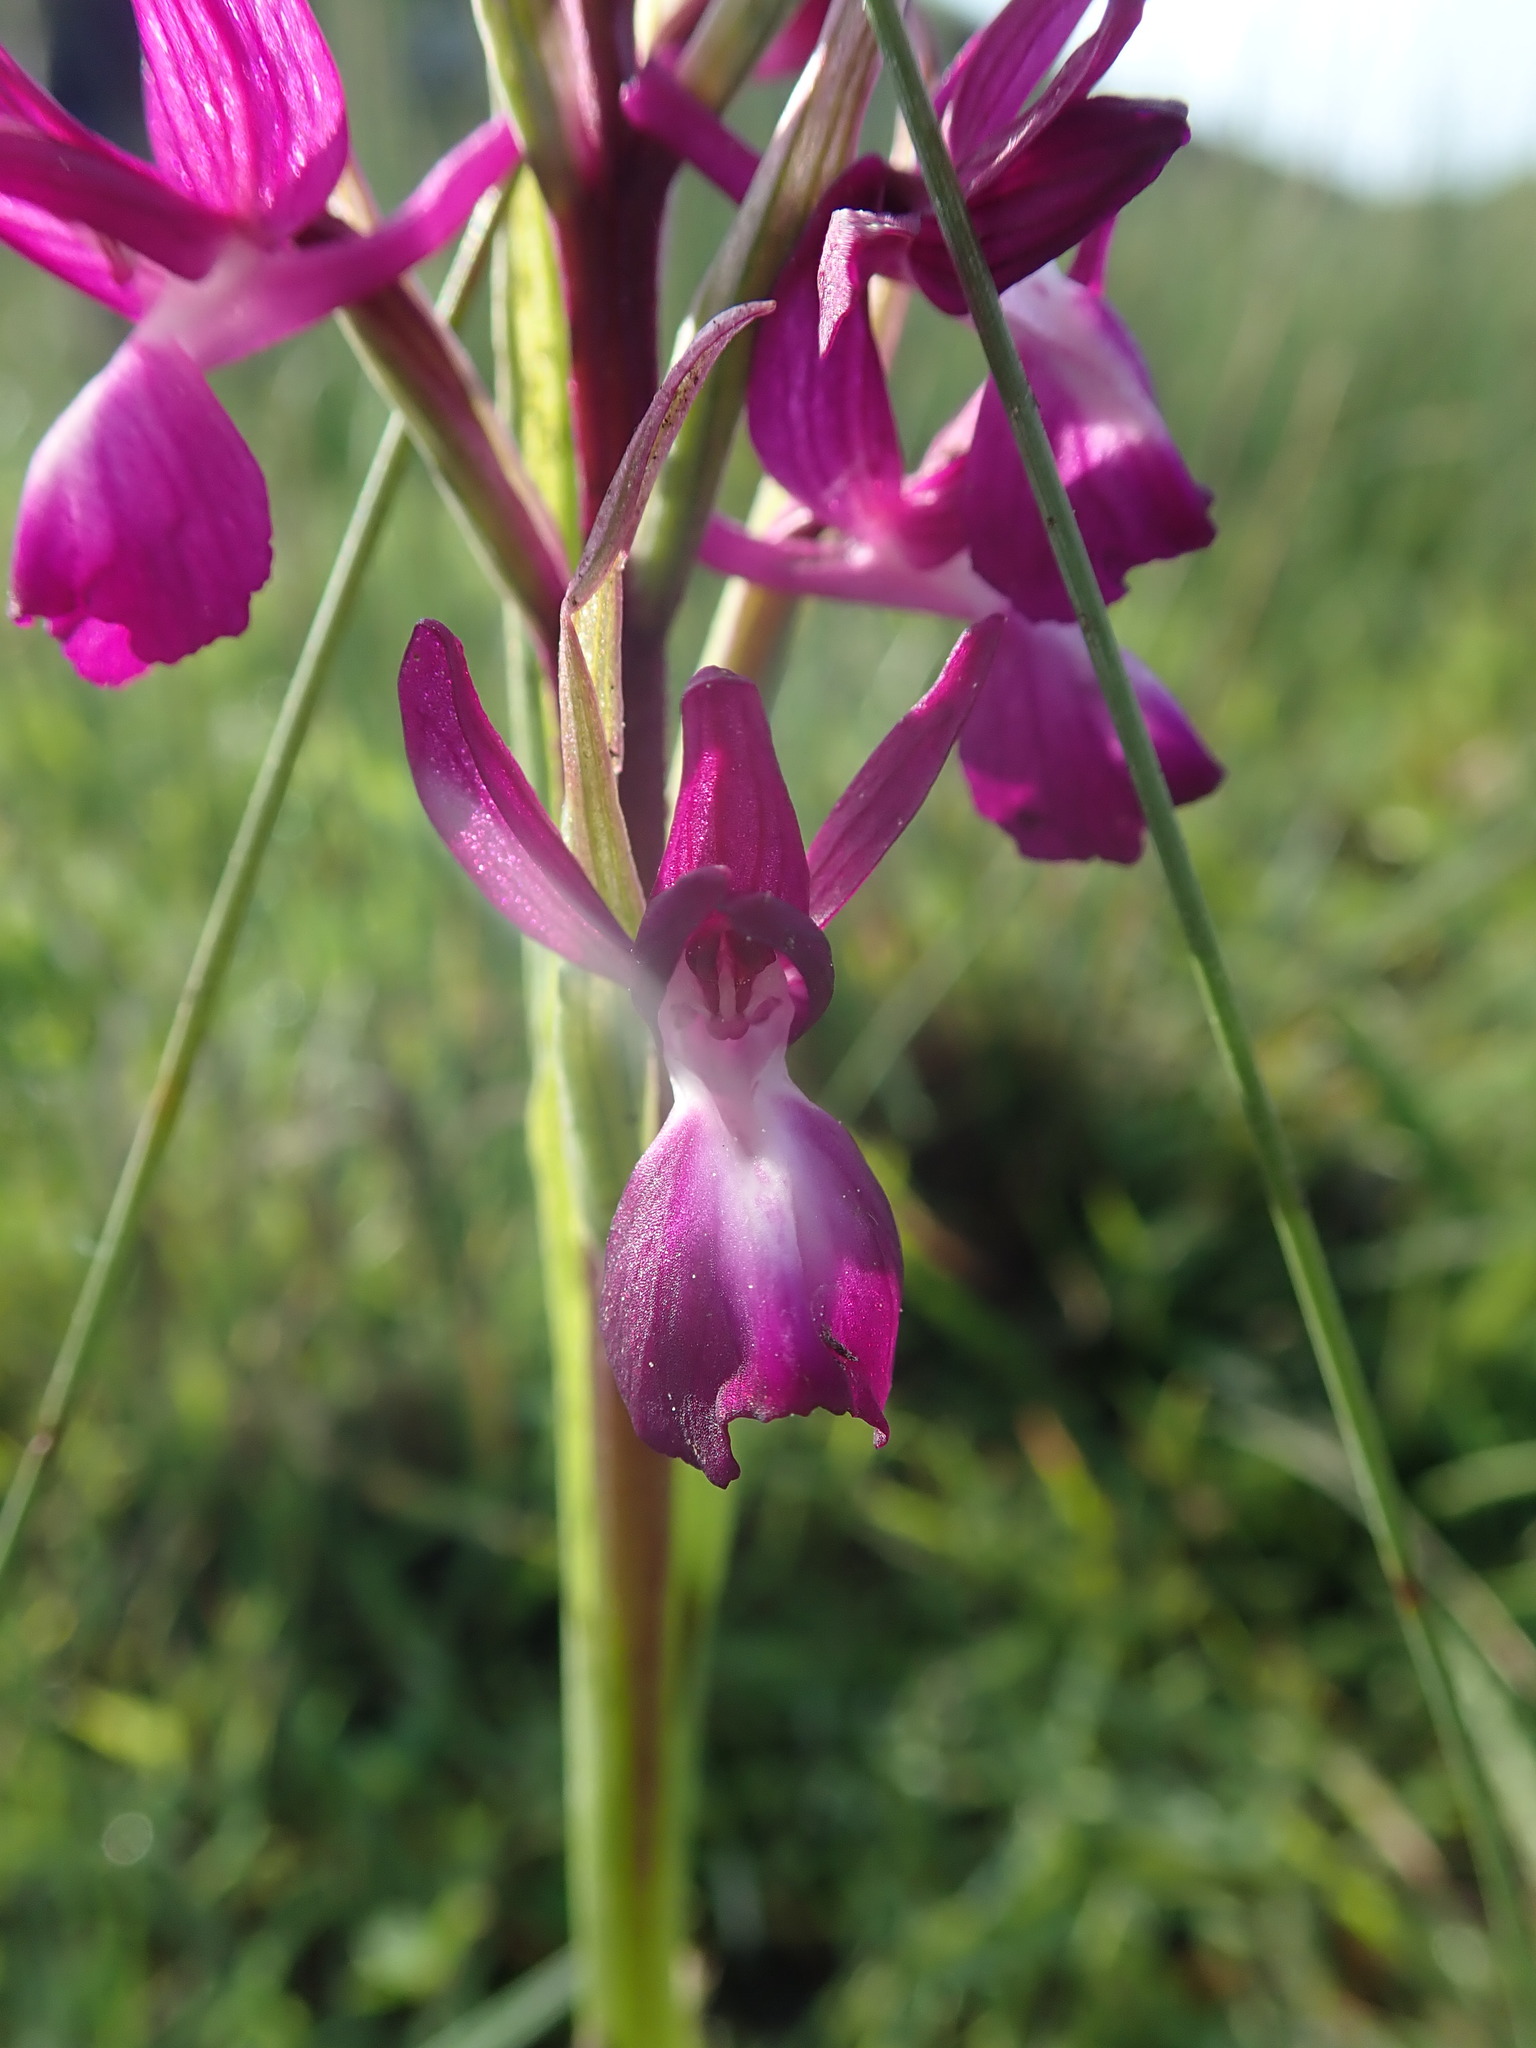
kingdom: Plantae
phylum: Tracheophyta
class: Liliopsida
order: Asparagales
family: Orchidaceae
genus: Anacamptis
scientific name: Anacamptis laxiflora
